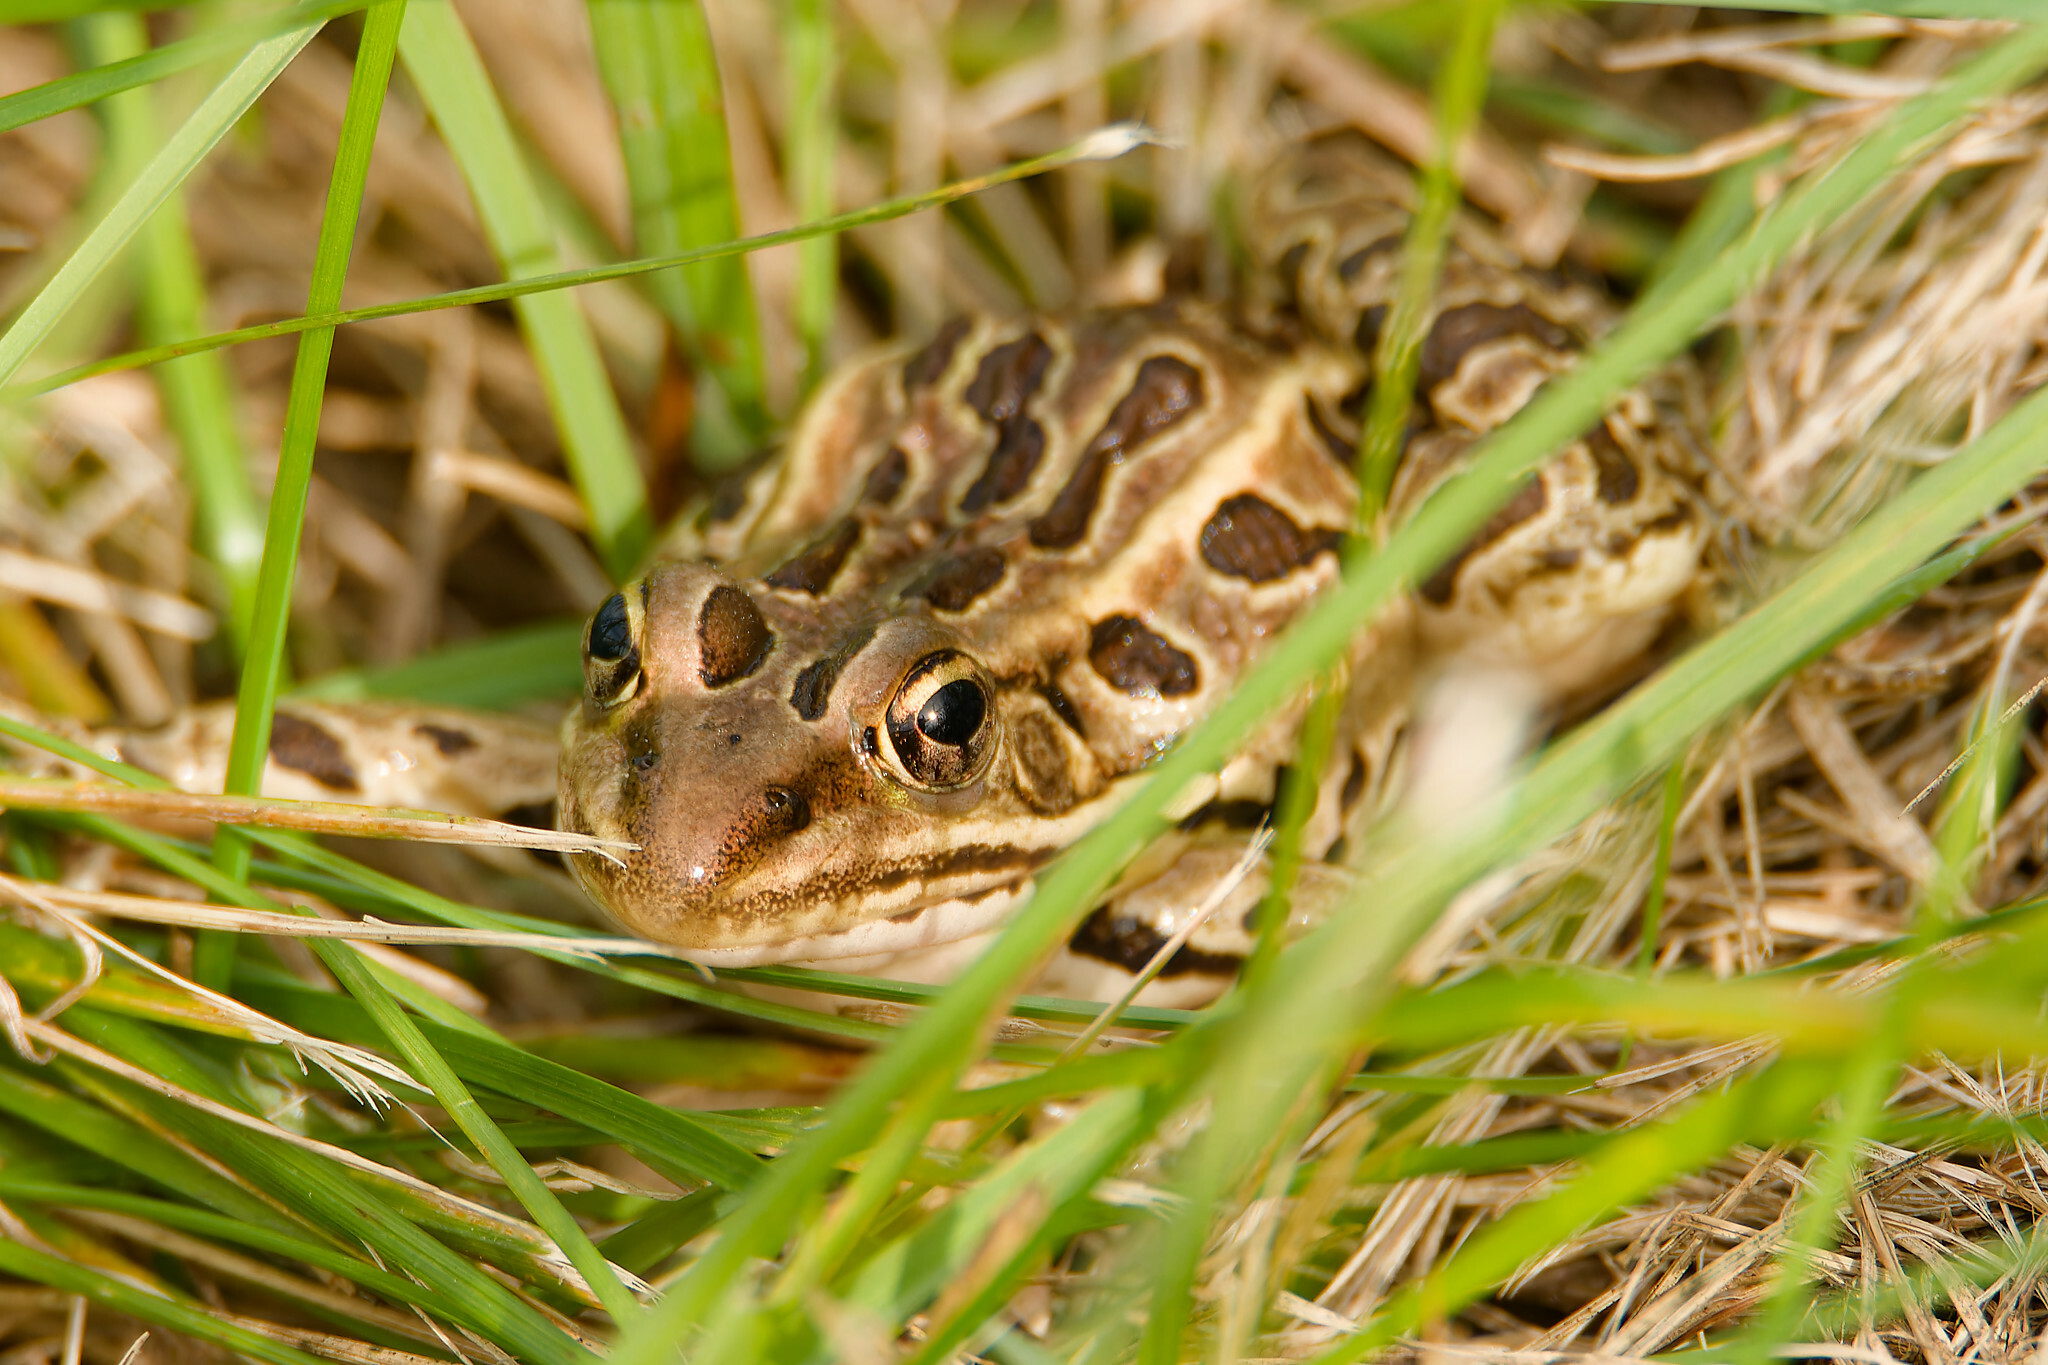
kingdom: Animalia
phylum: Chordata
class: Amphibia
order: Anura
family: Ranidae
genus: Lithobates
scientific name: Lithobates pipiens
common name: Northern leopard frog
